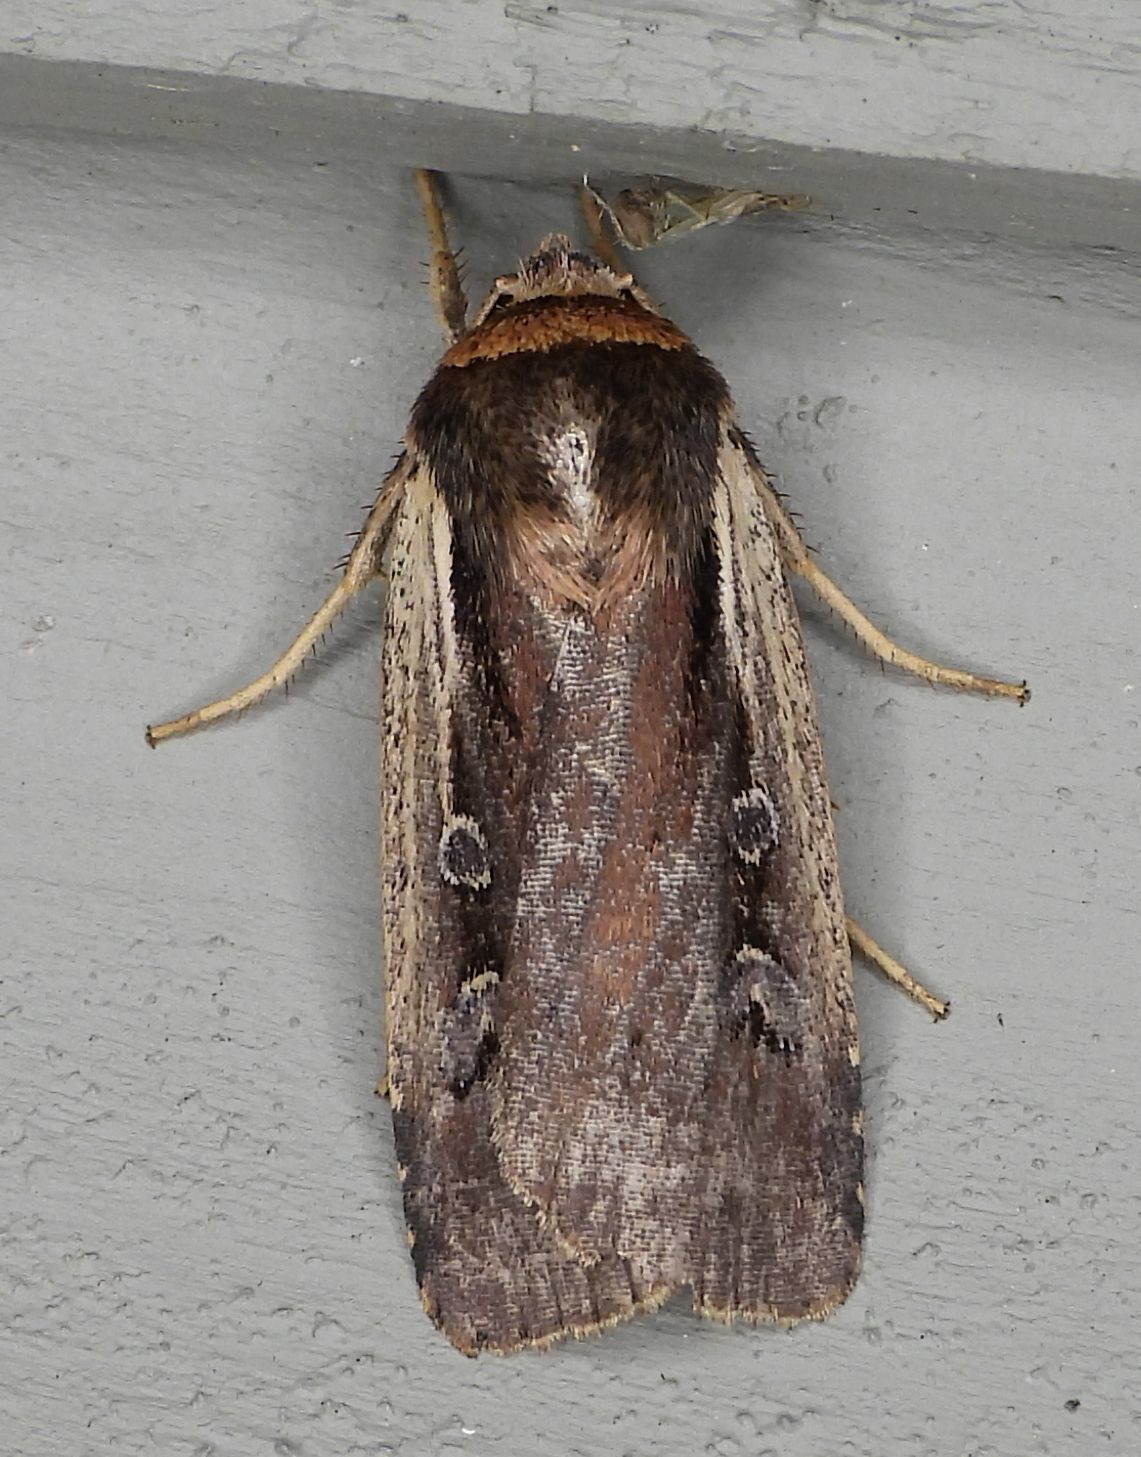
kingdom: Animalia
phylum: Arthropoda
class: Insecta
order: Lepidoptera
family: Noctuidae
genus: Ochropleura
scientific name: Ochropleura implecta
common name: Flame-shouldered dart
